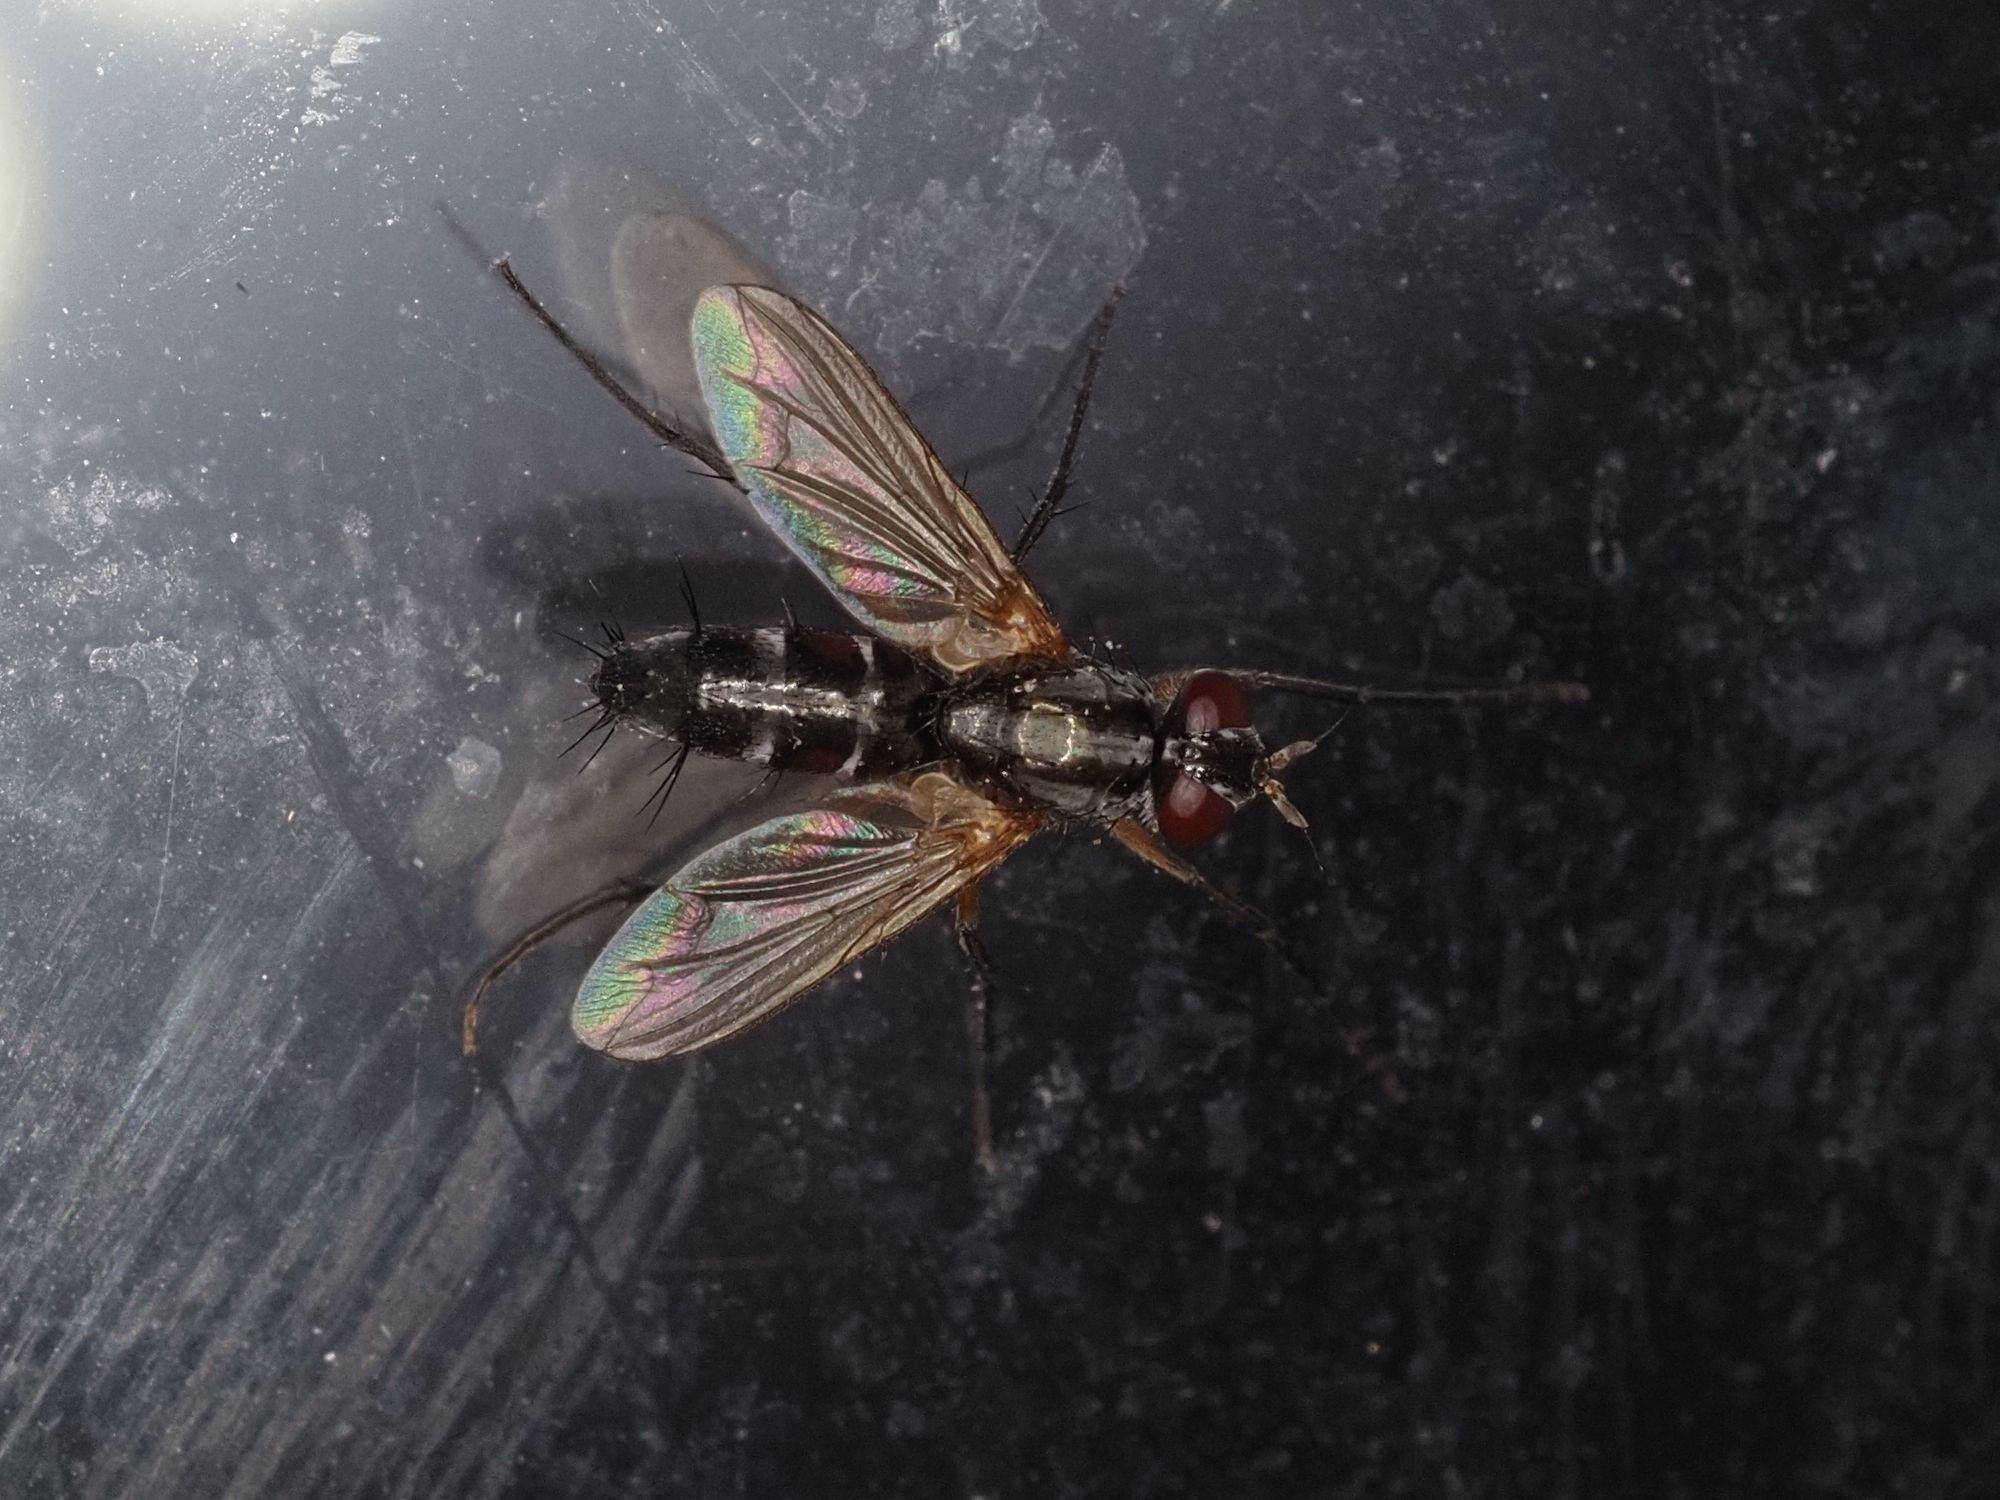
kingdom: Animalia
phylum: Arthropoda
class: Insecta
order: Diptera
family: Tachinidae
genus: Mintho
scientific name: Mintho rufiventris
